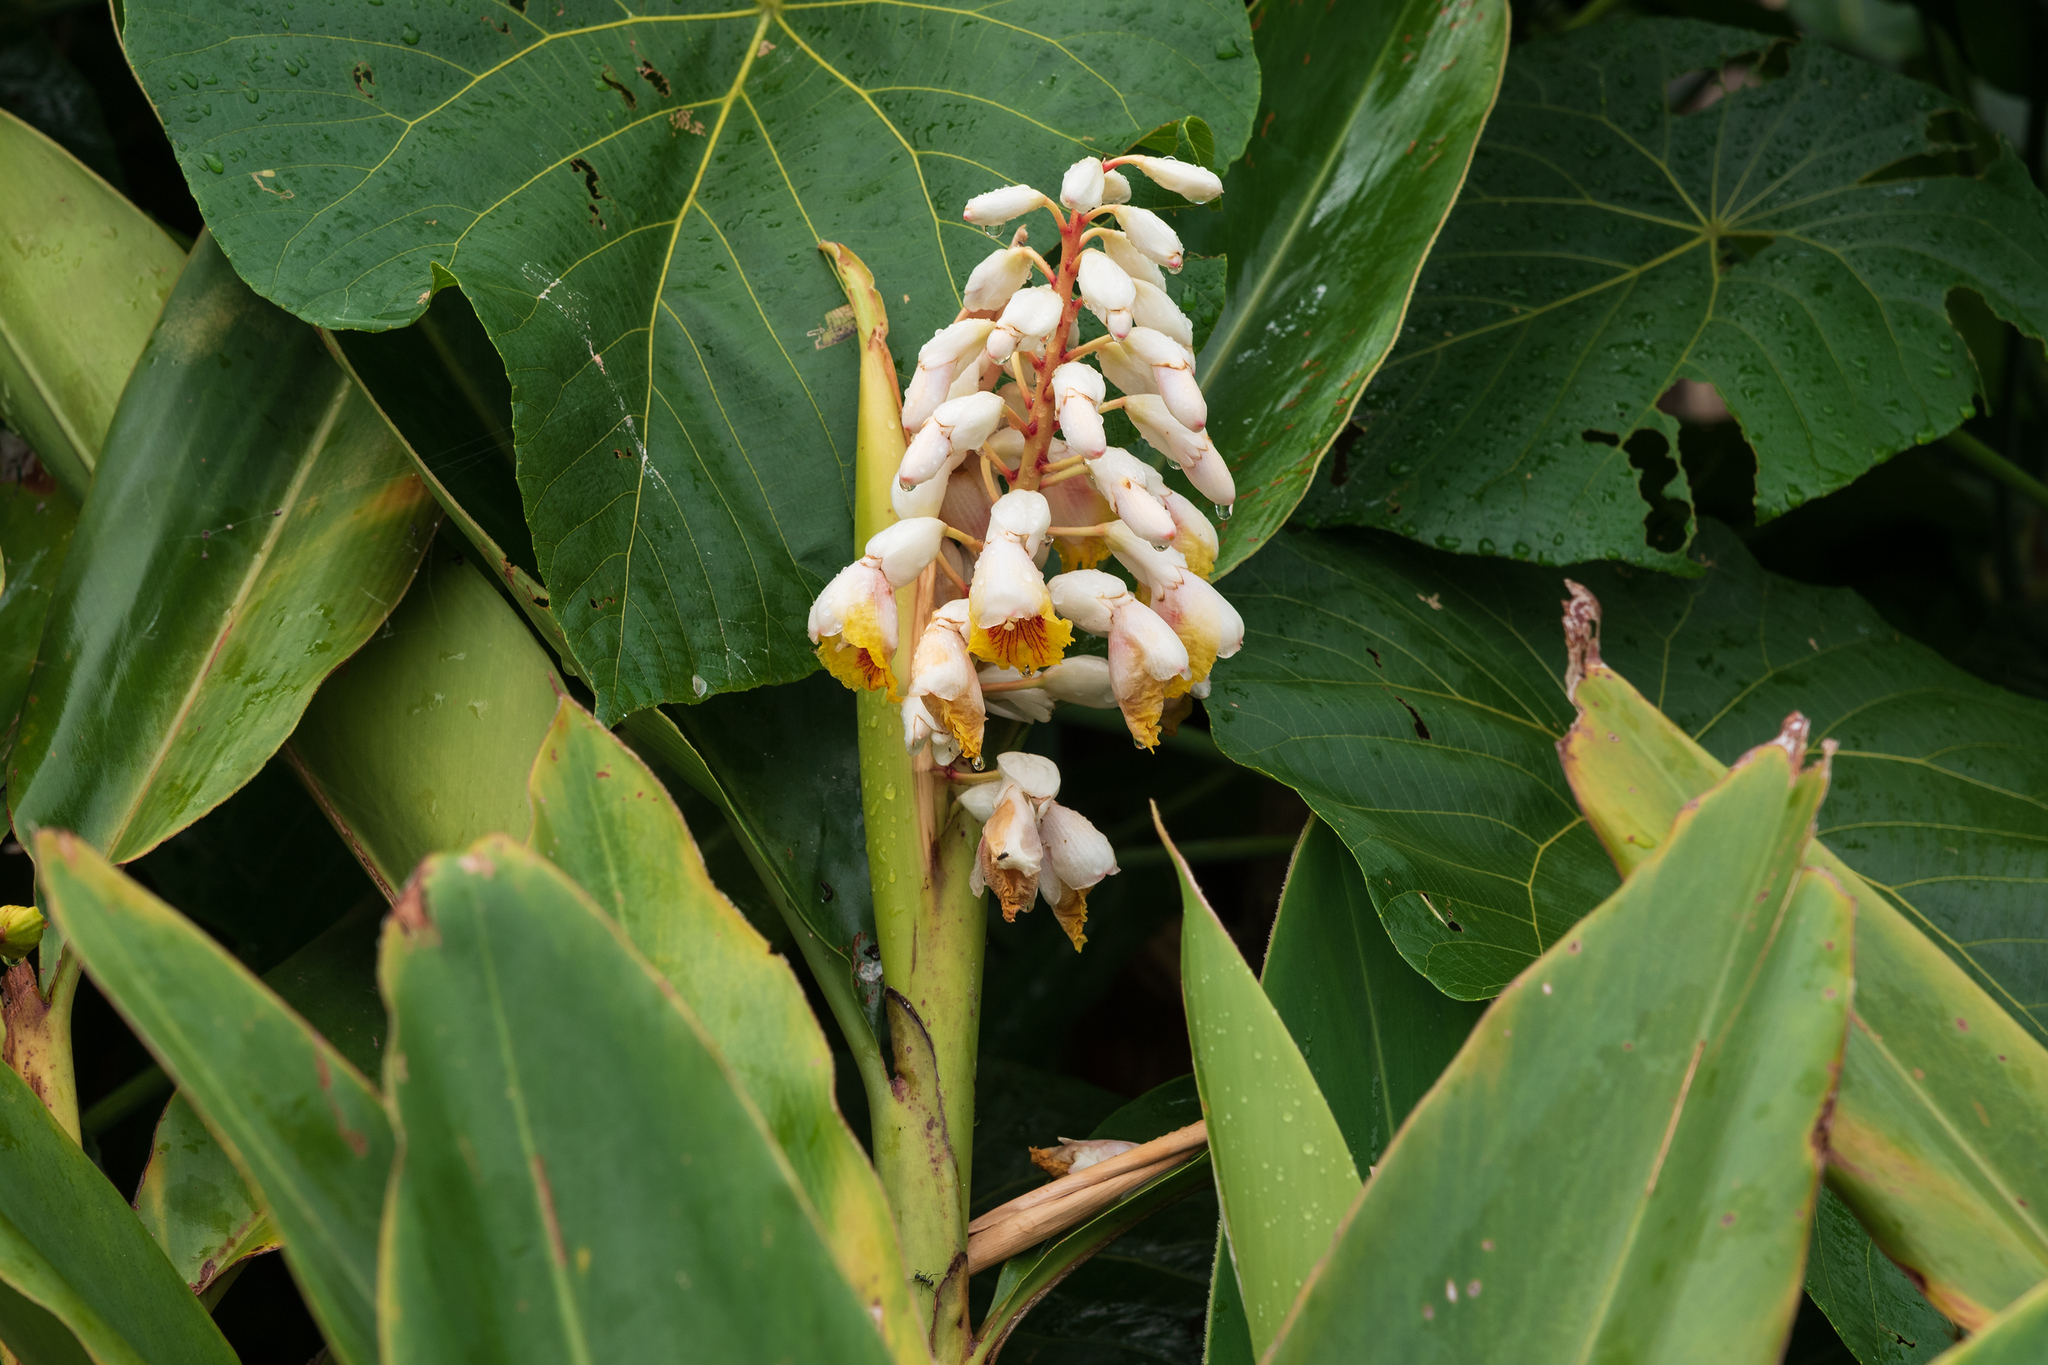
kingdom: Plantae
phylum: Tracheophyta
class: Liliopsida
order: Zingiberales
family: Zingiberaceae
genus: Alpinia
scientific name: Alpinia koshunensis
